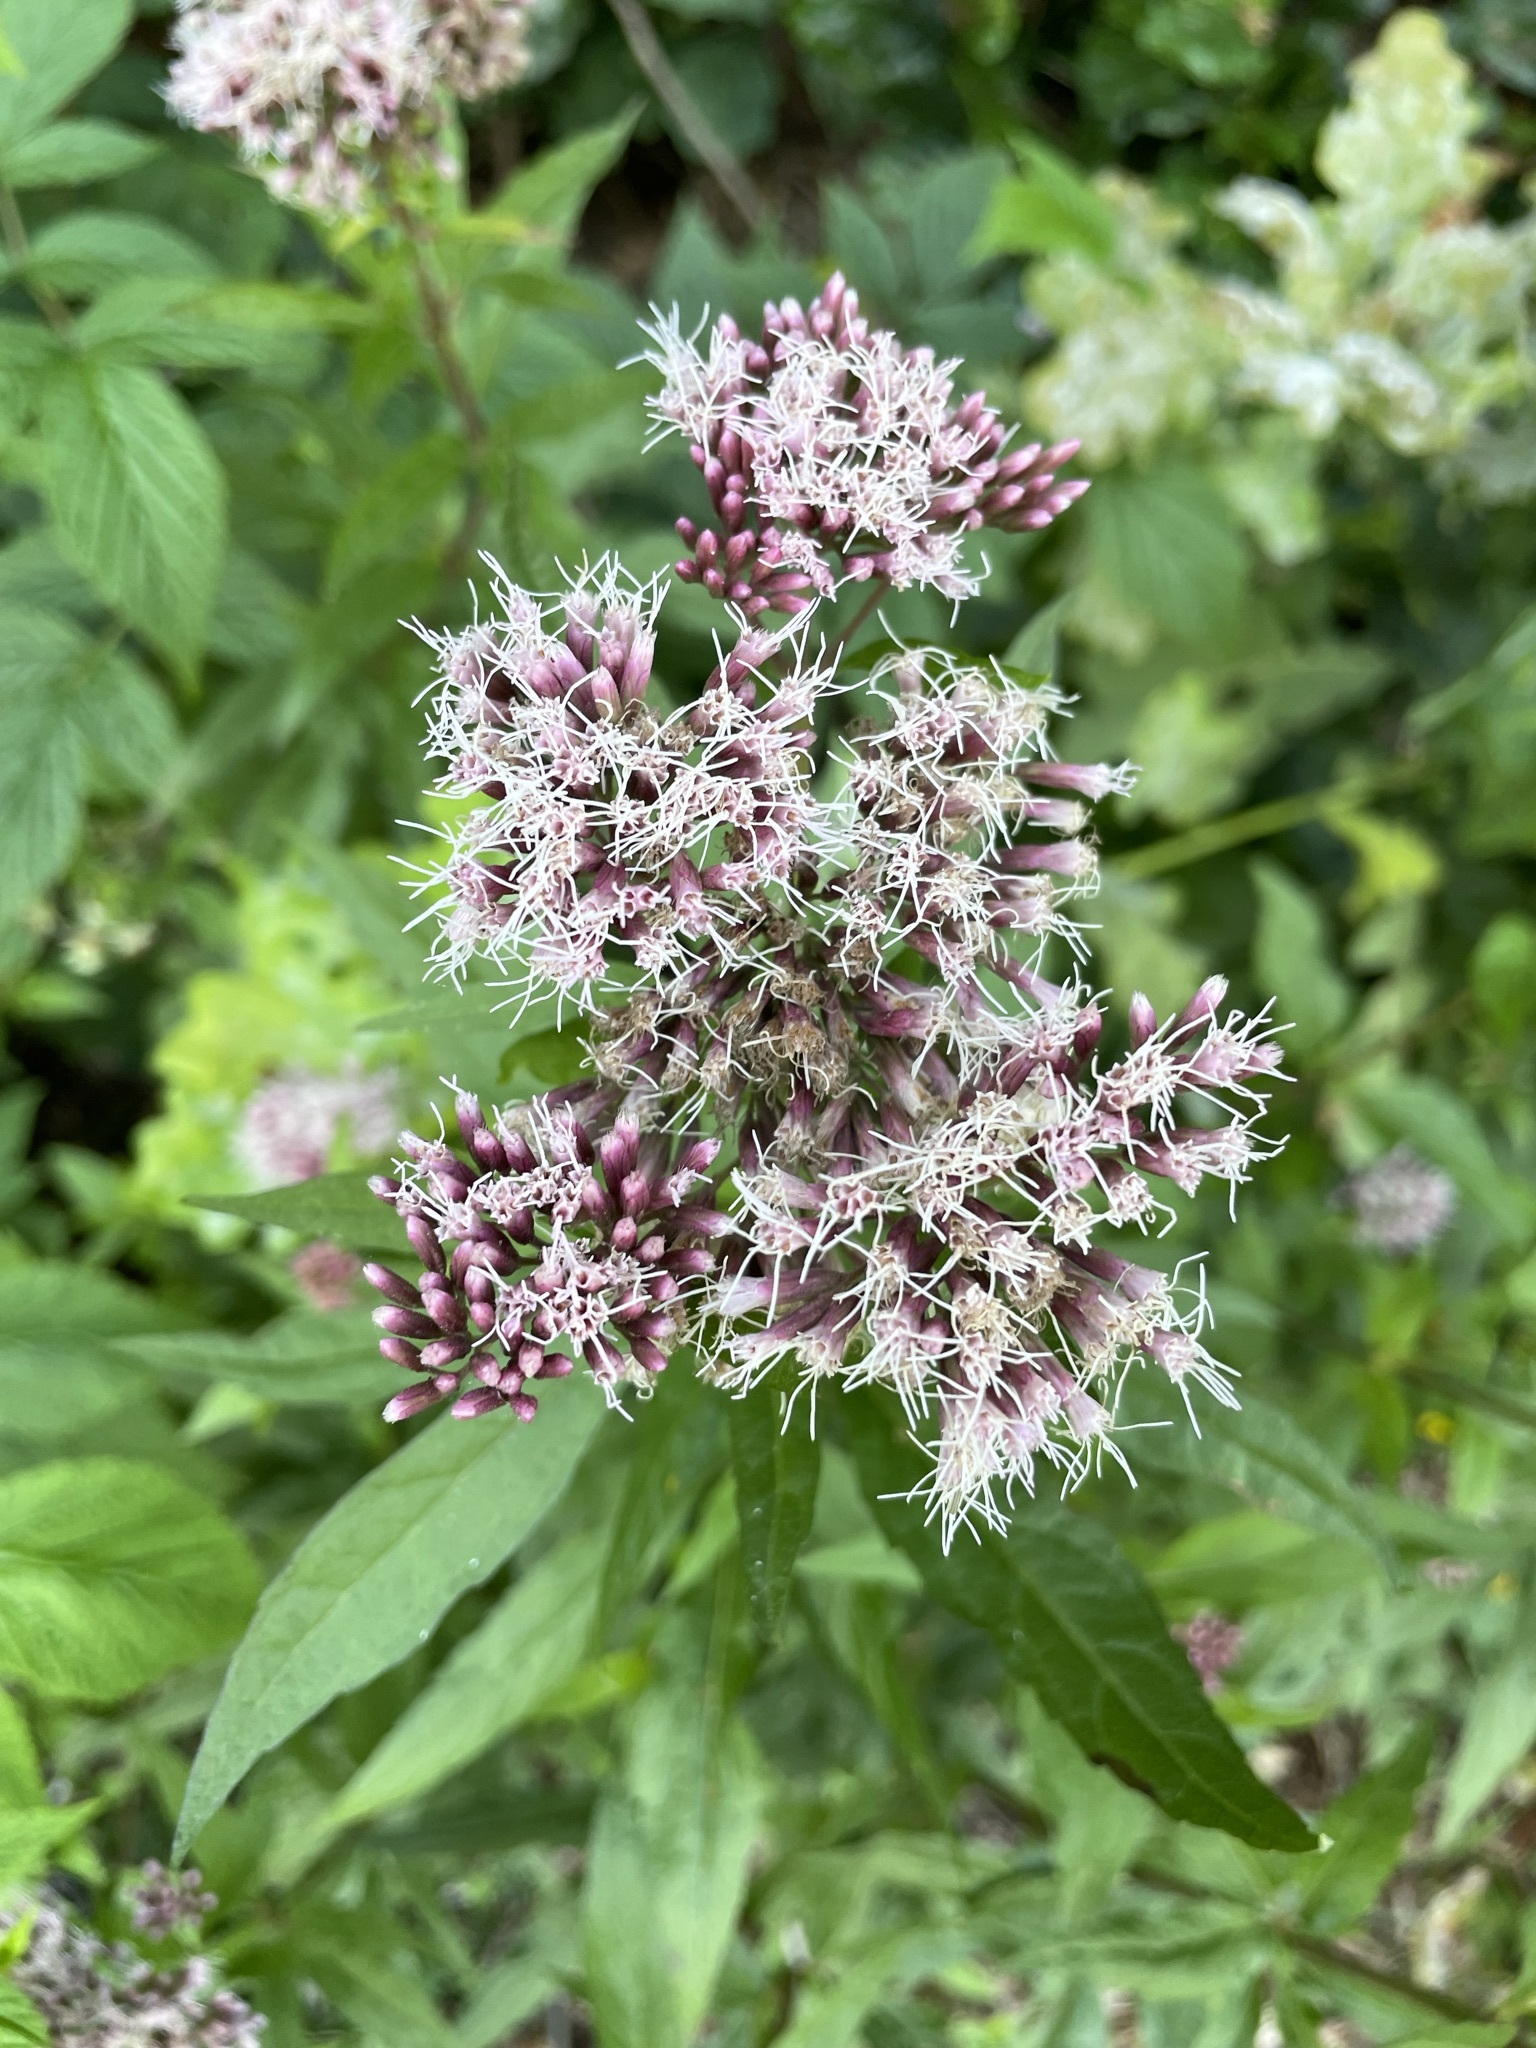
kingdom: Plantae
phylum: Tracheophyta
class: Magnoliopsida
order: Asterales
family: Asteraceae
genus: Eupatorium
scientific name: Eupatorium cannabinum
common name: Hemp-agrimony
